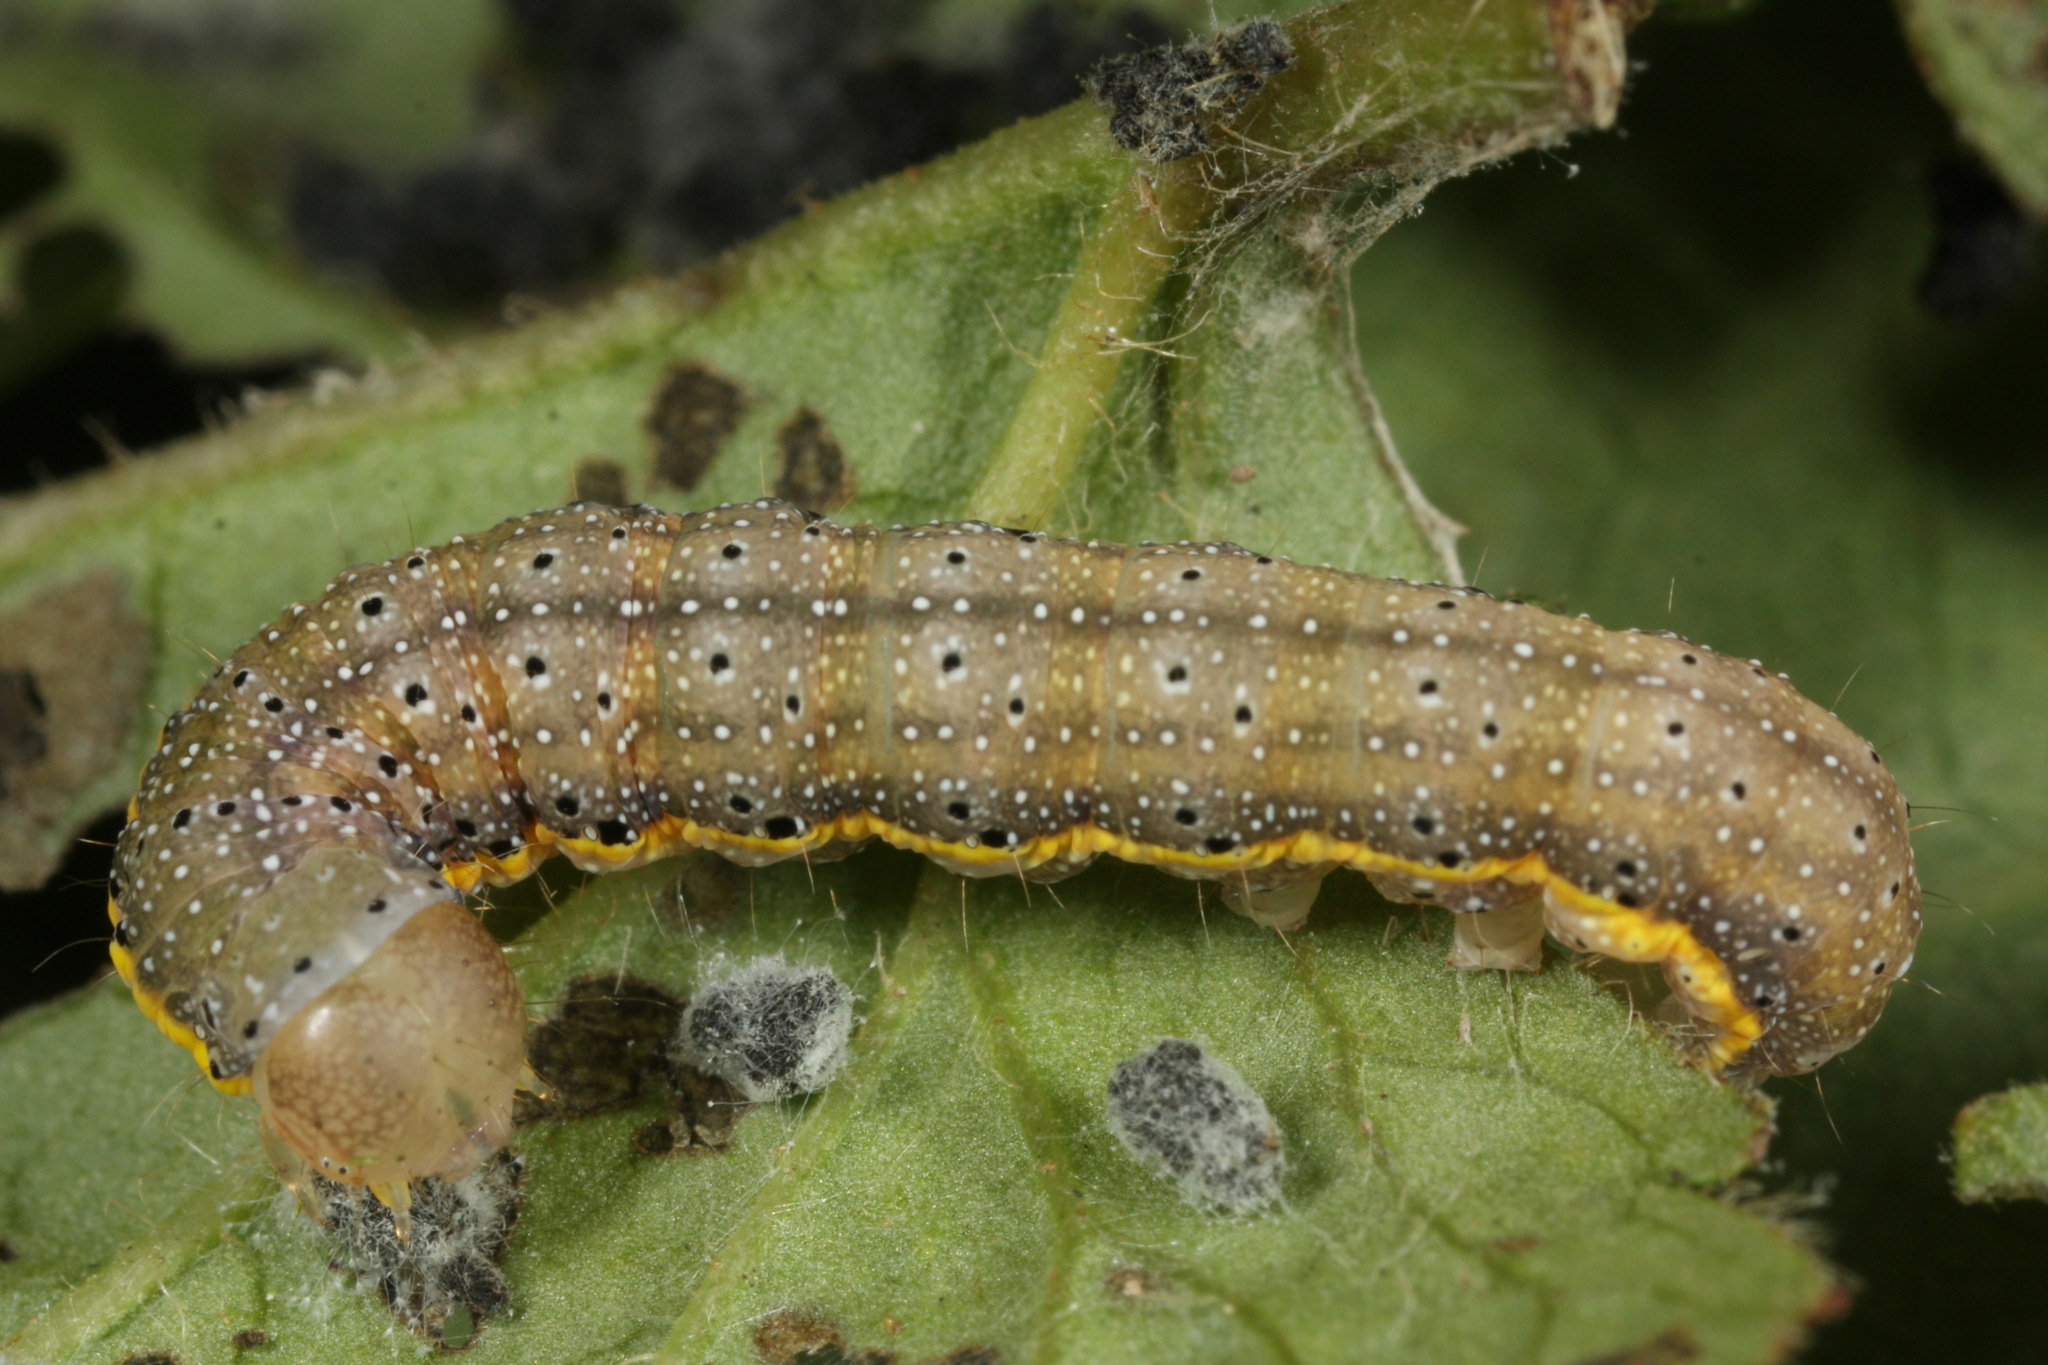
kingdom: Animalia
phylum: Arthropoda
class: Insecta
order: Lepidoptera
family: Noctuidae
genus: Lacanobia
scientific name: Lacanobia oleracea
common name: Bright-line brown-eye
